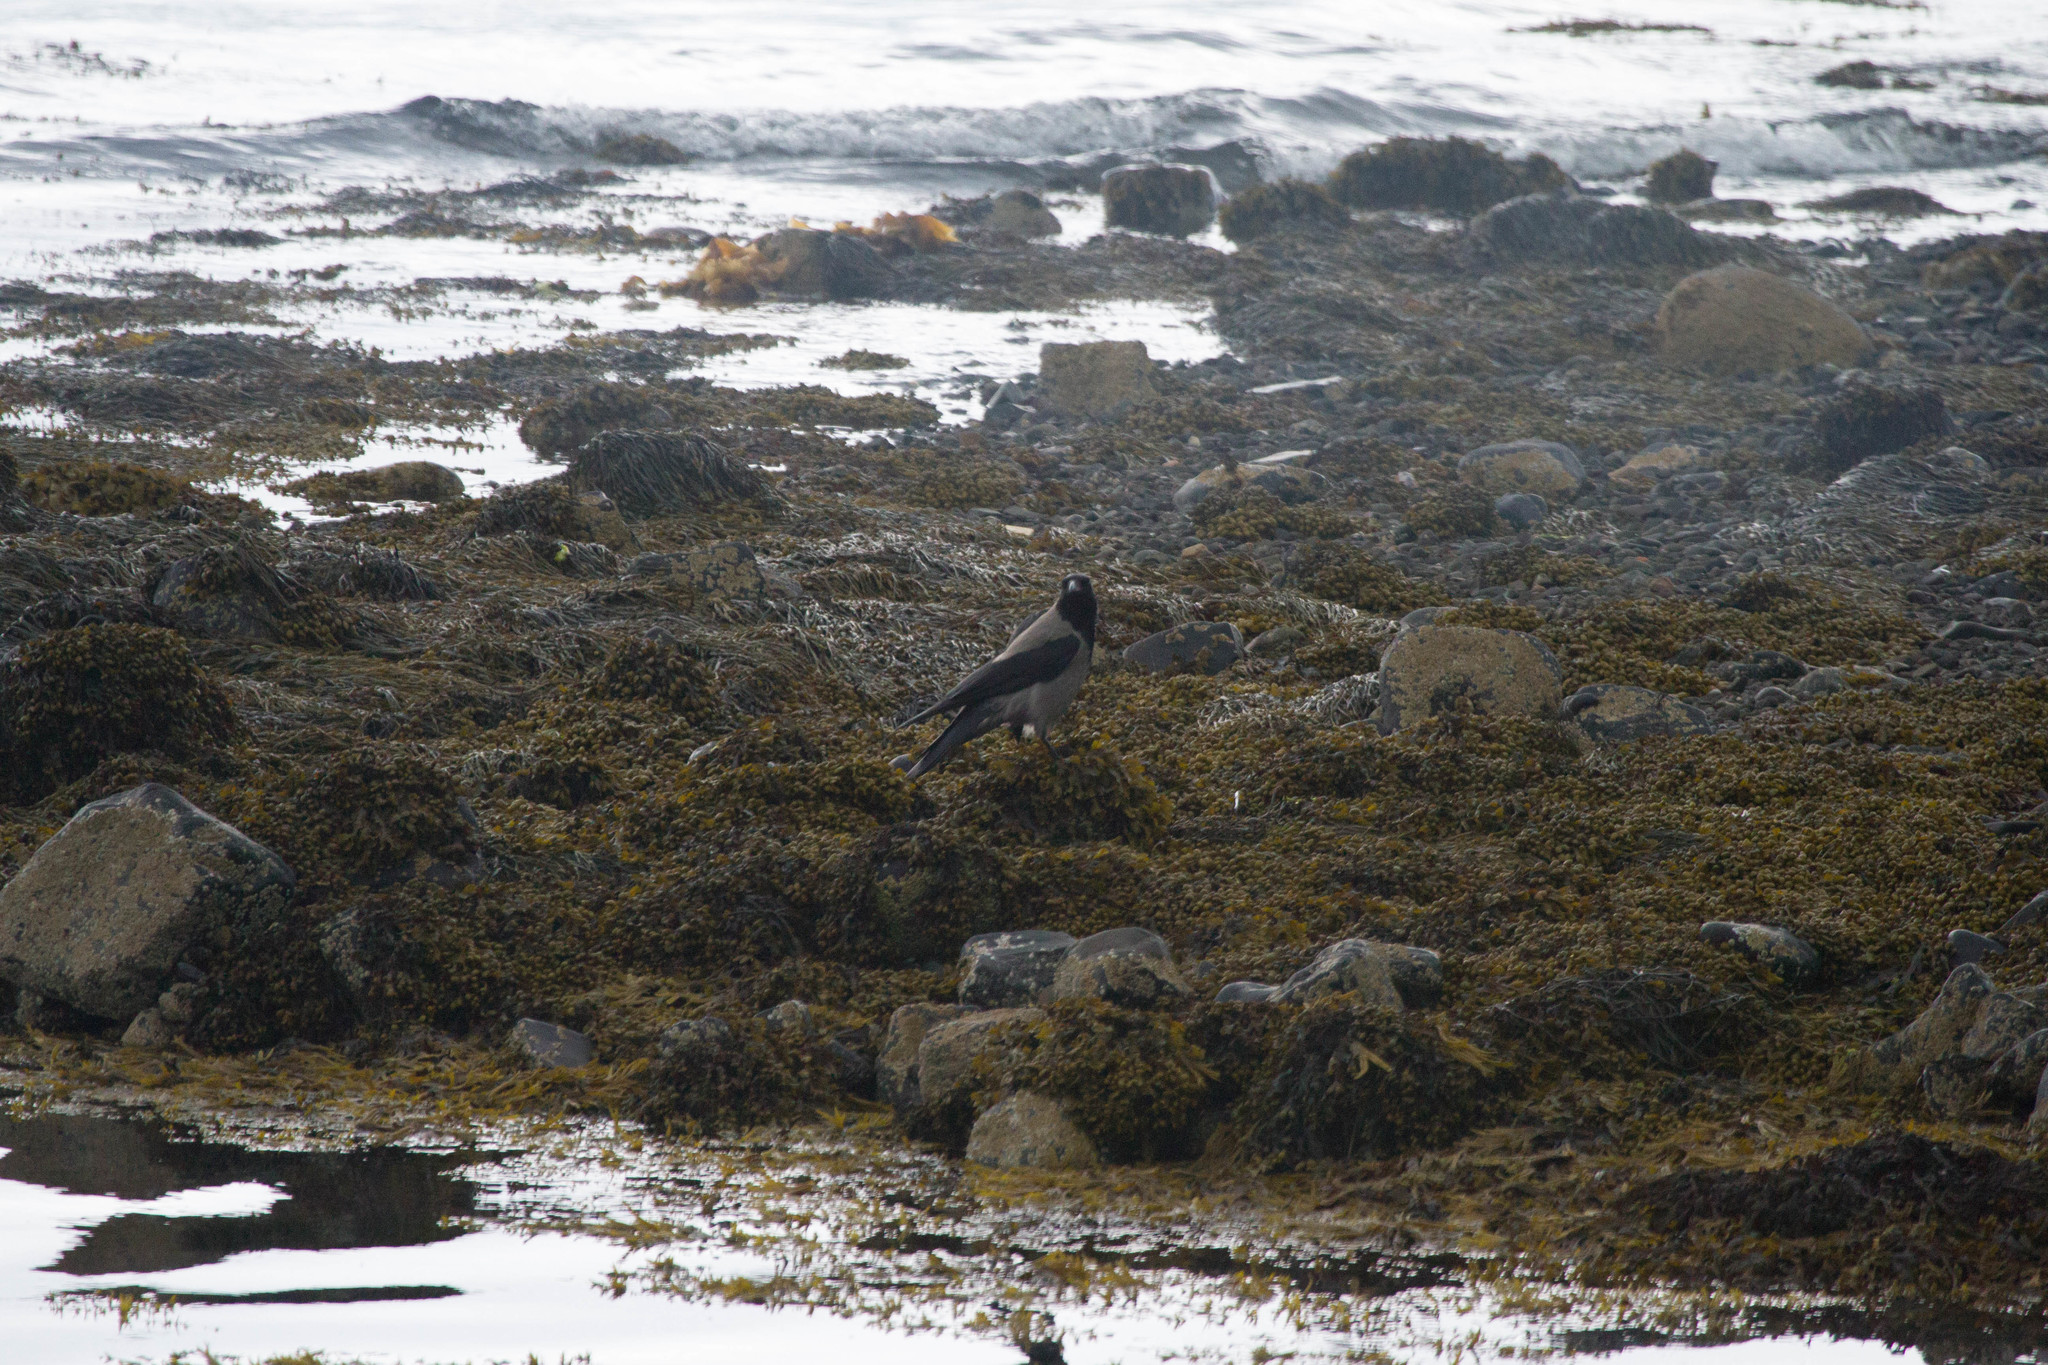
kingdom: Animalia
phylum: Chordata
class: Aves
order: Passeriformes
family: Corvidae
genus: Corvus
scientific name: Corvus cornix
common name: Hooded crow
